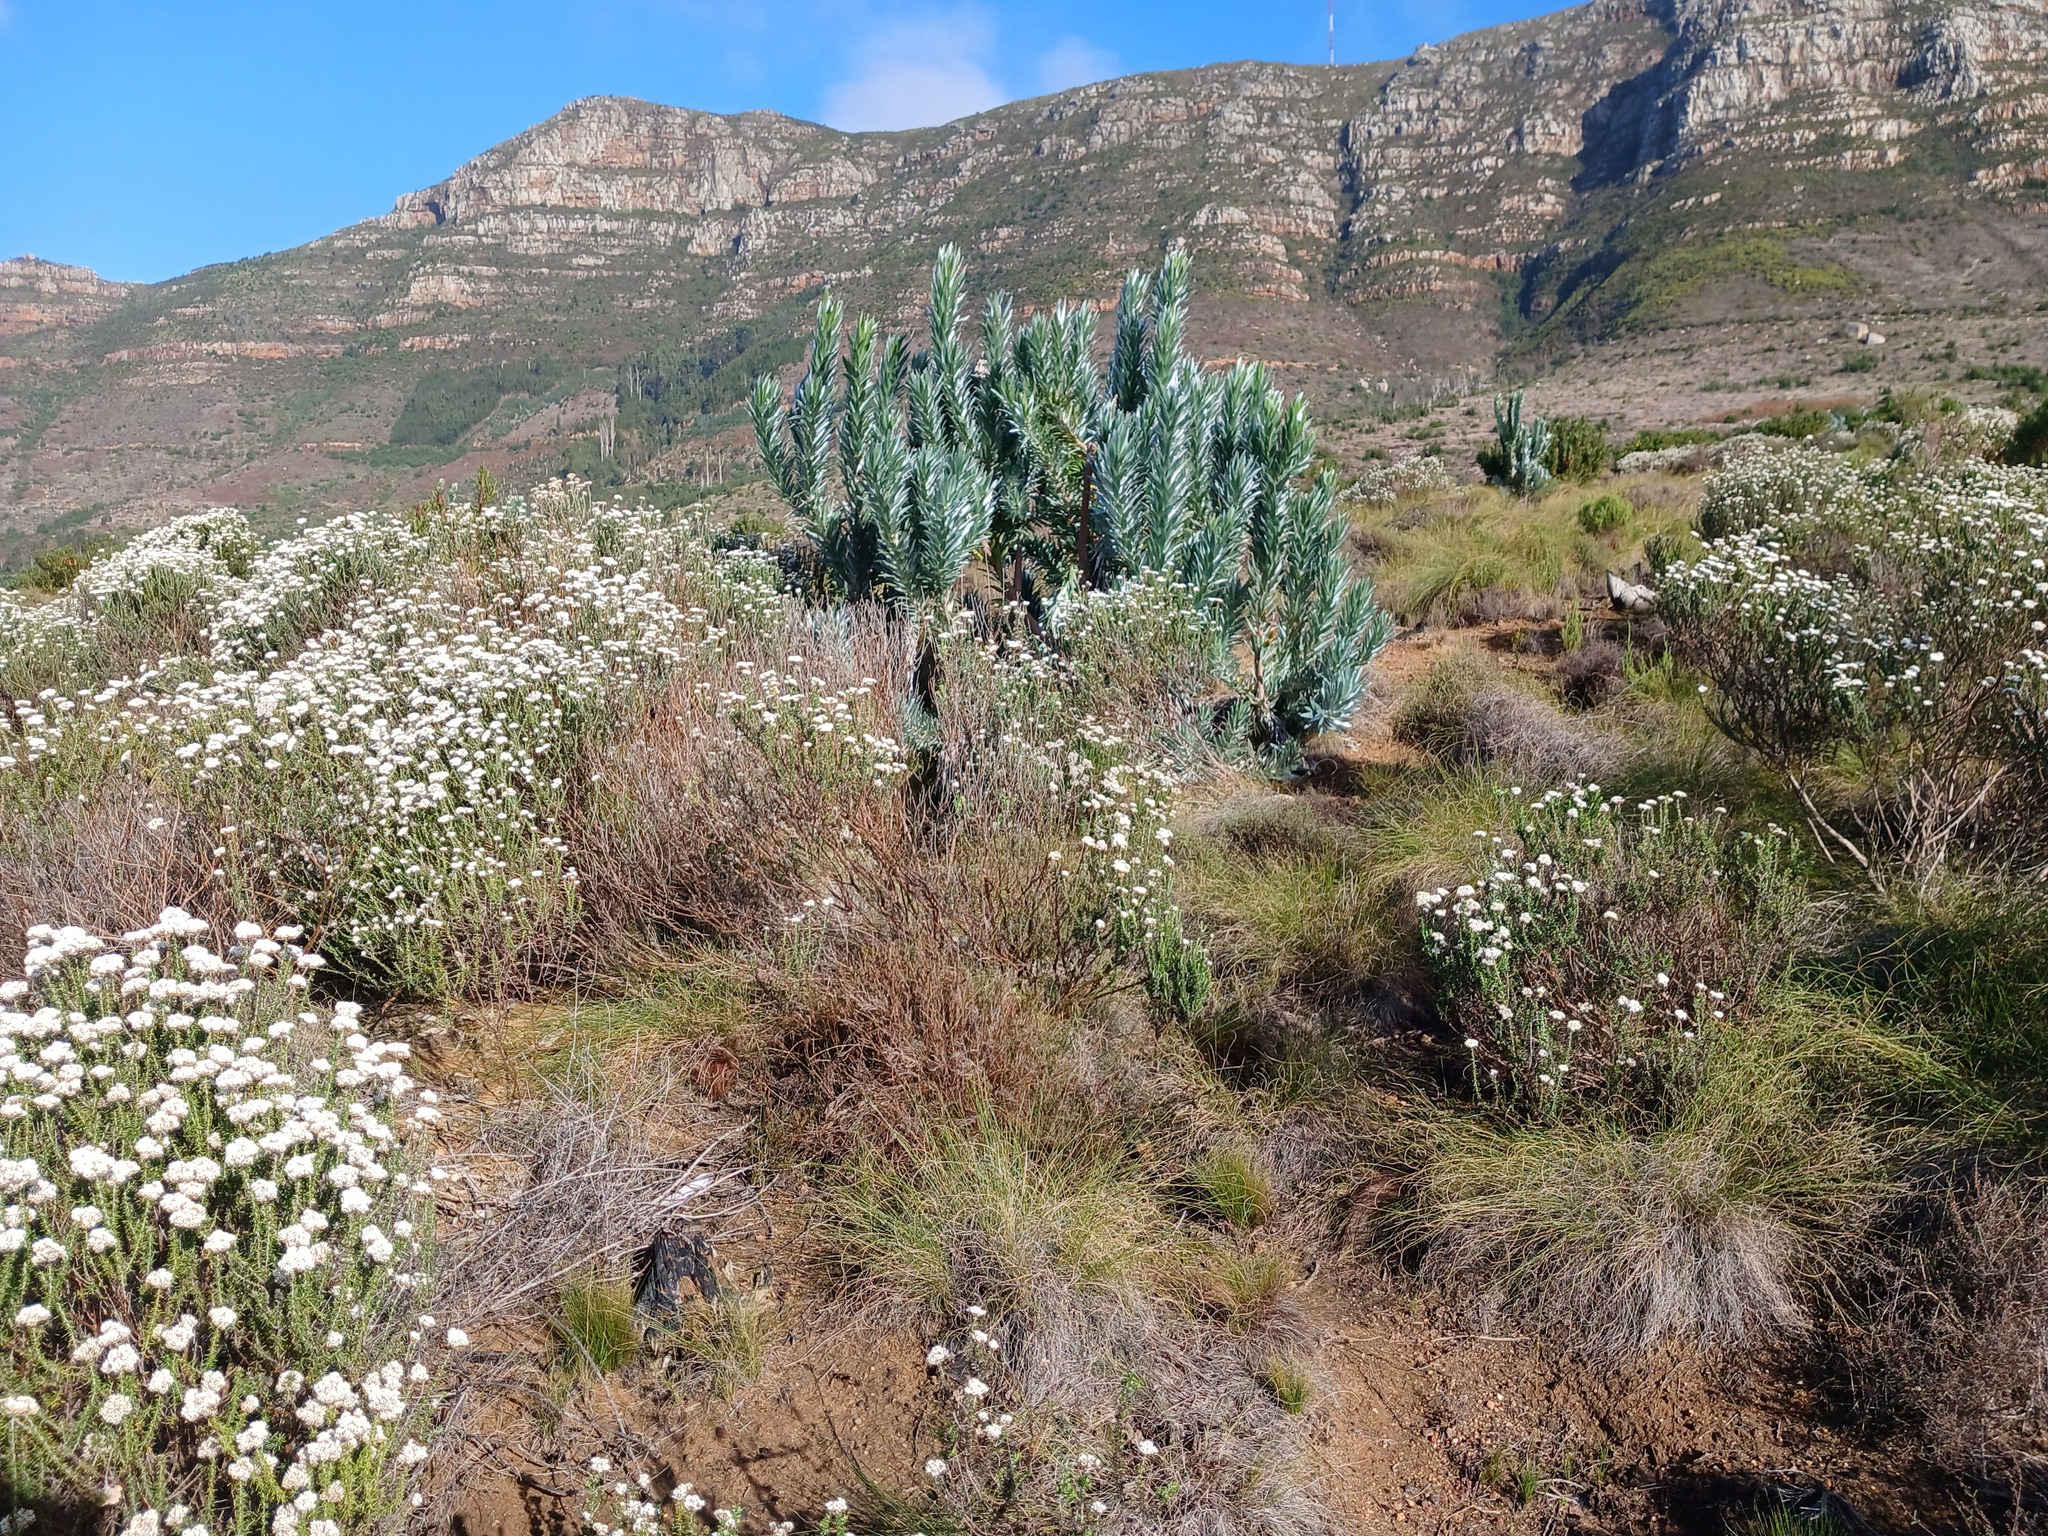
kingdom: Plantae
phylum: Tracheophyta
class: Magnoliopsida
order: Asterales
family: Asteraceae
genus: Metalasia
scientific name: Metalasia densa
